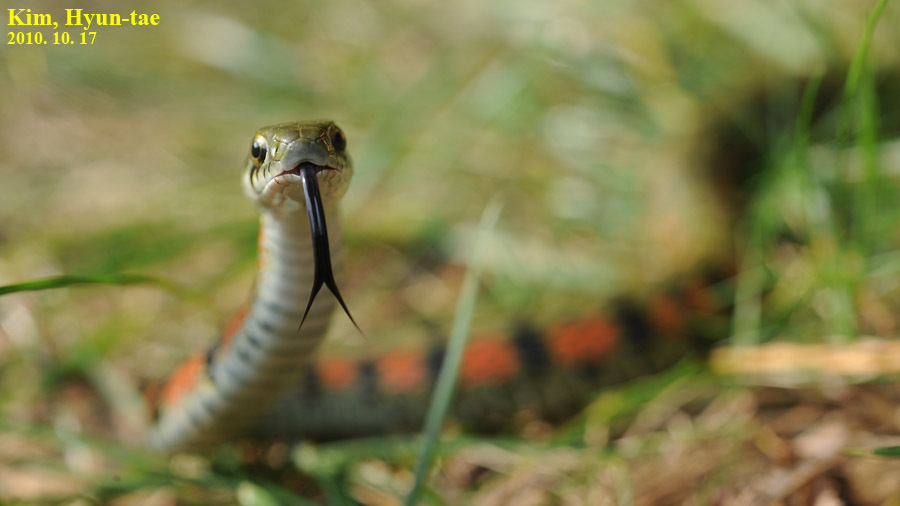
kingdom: Animalia
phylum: Chordata
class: Squamata
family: Colubridae
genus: Rhabdophis
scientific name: Rhabdophis tigrinus
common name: Tiger keelback
